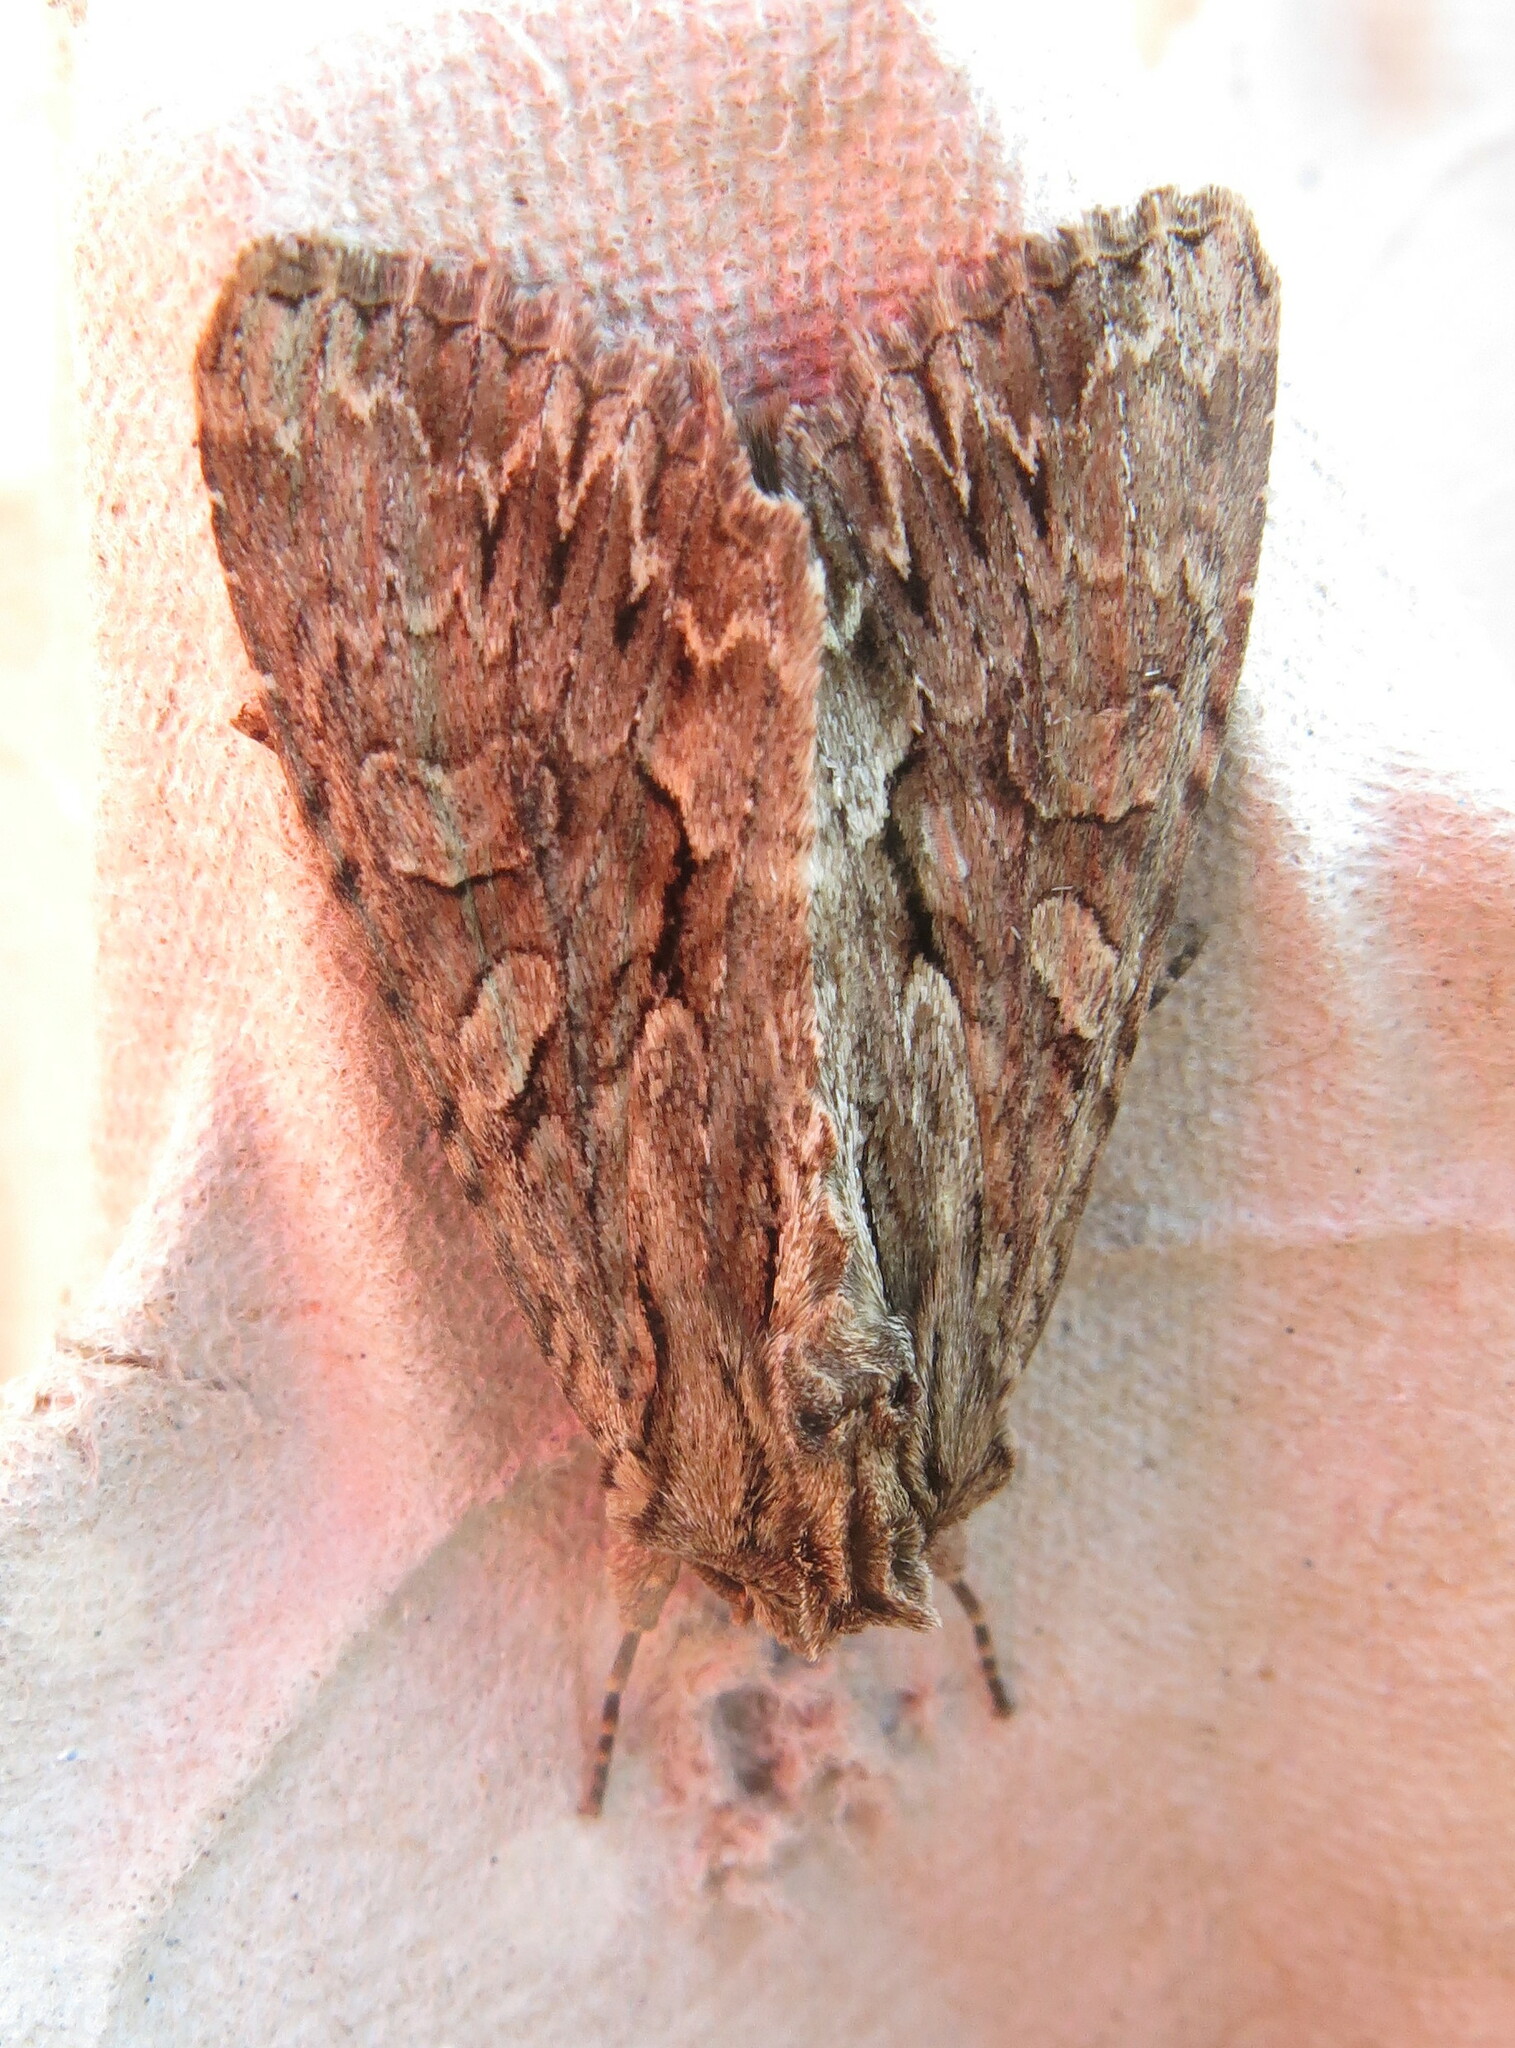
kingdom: Animalia
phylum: Arthropoda
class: Insecta
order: Lepidoptera
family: Noctuidae
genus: Apamea
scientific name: Apamea monoglypha
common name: Dark arches
